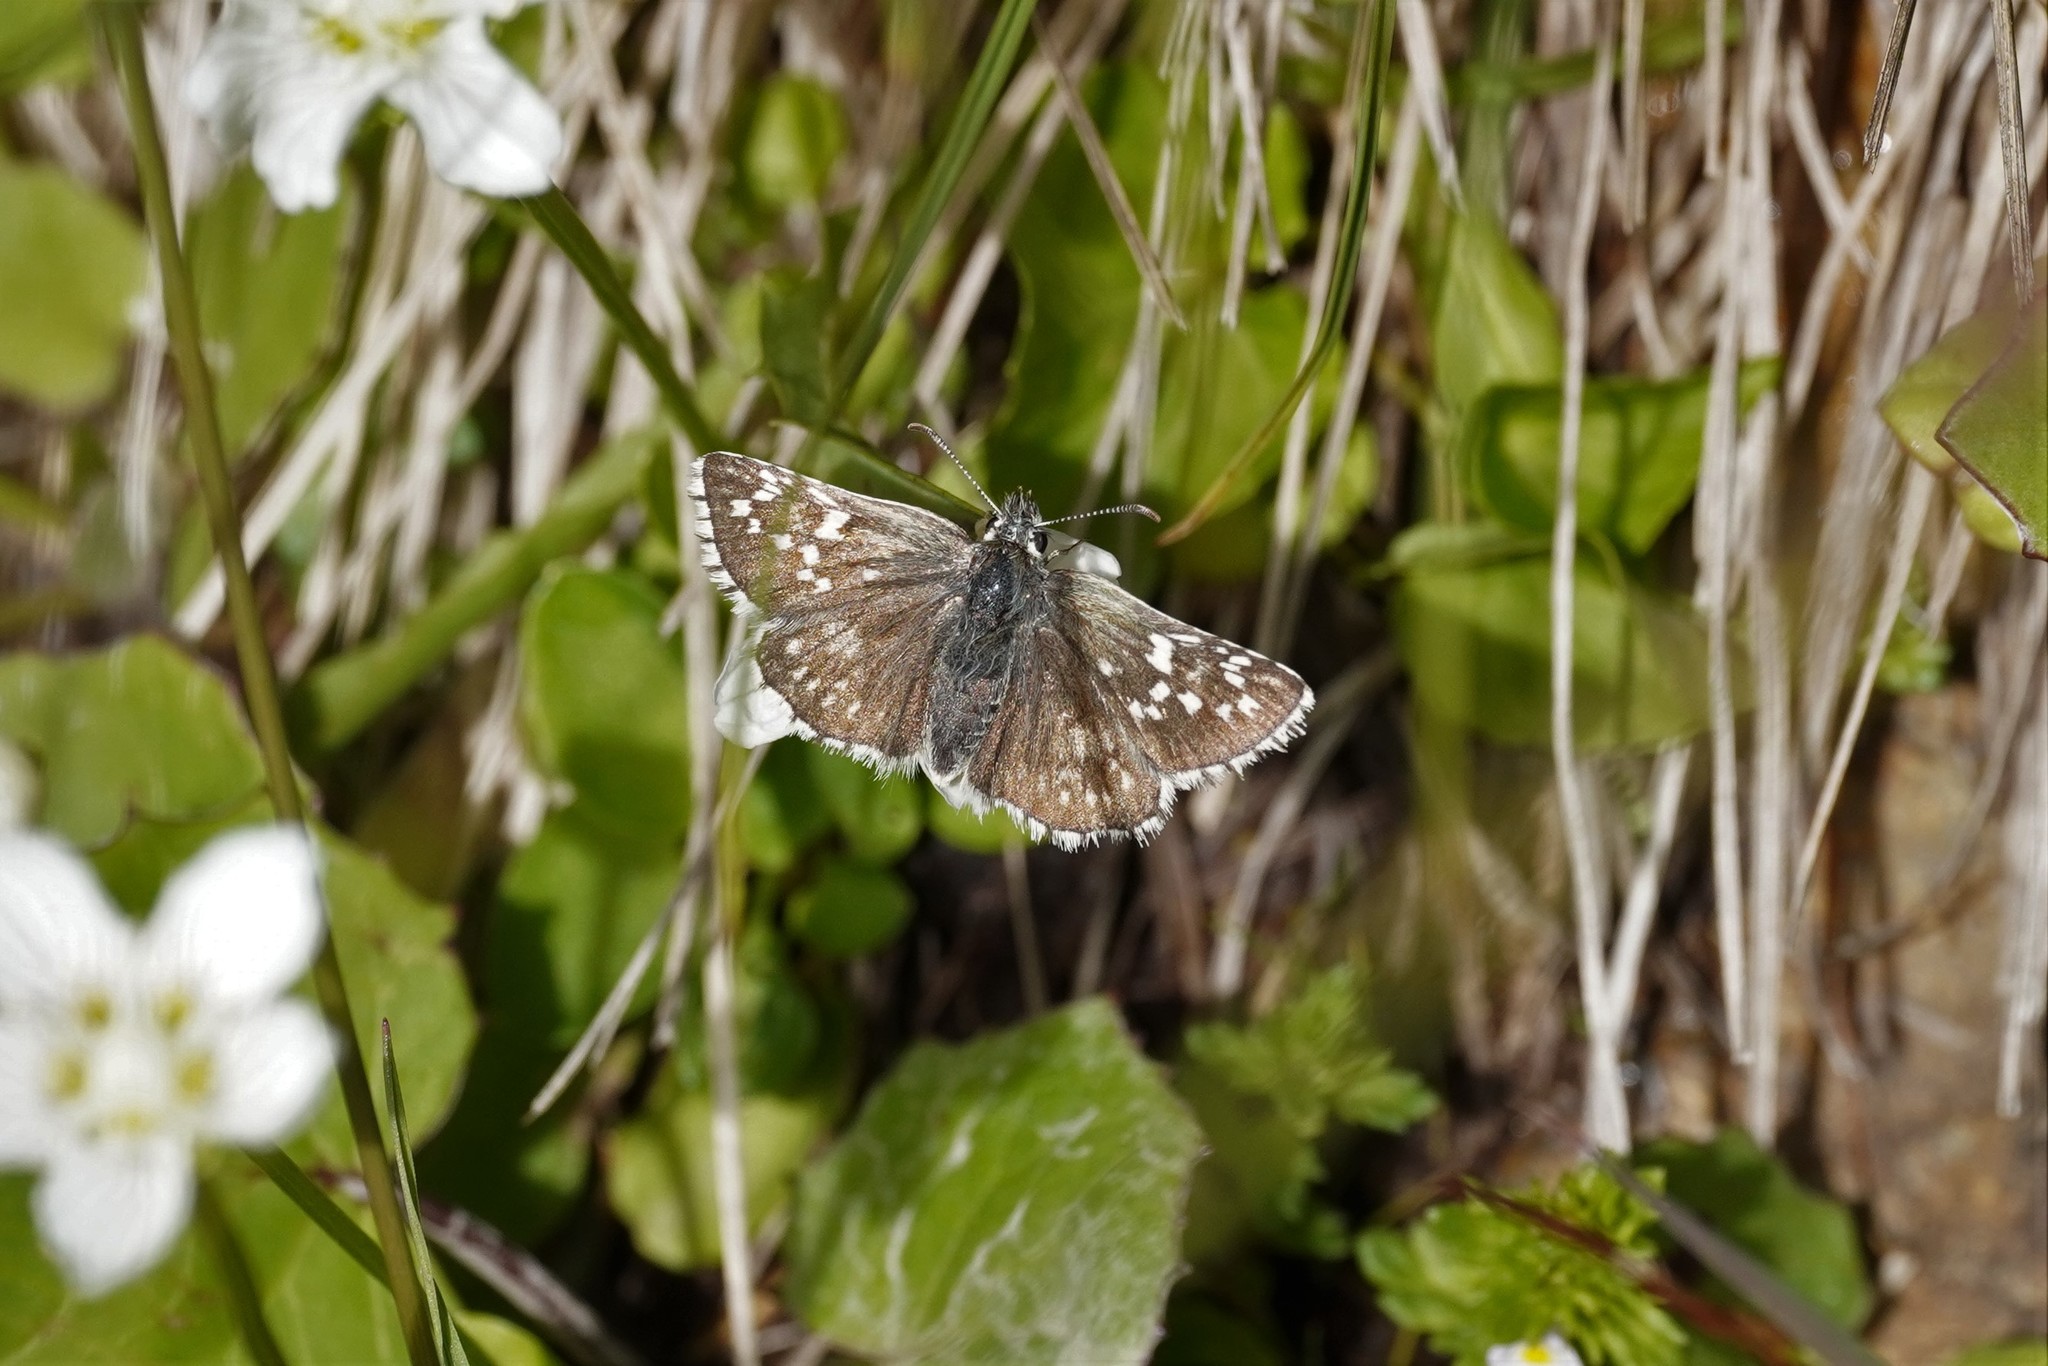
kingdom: Animalia
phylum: Arthropoda
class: Insecta
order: Lepidoptera
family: Hesperiidae
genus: Pyrgus
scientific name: Pyrgus fritillarius
